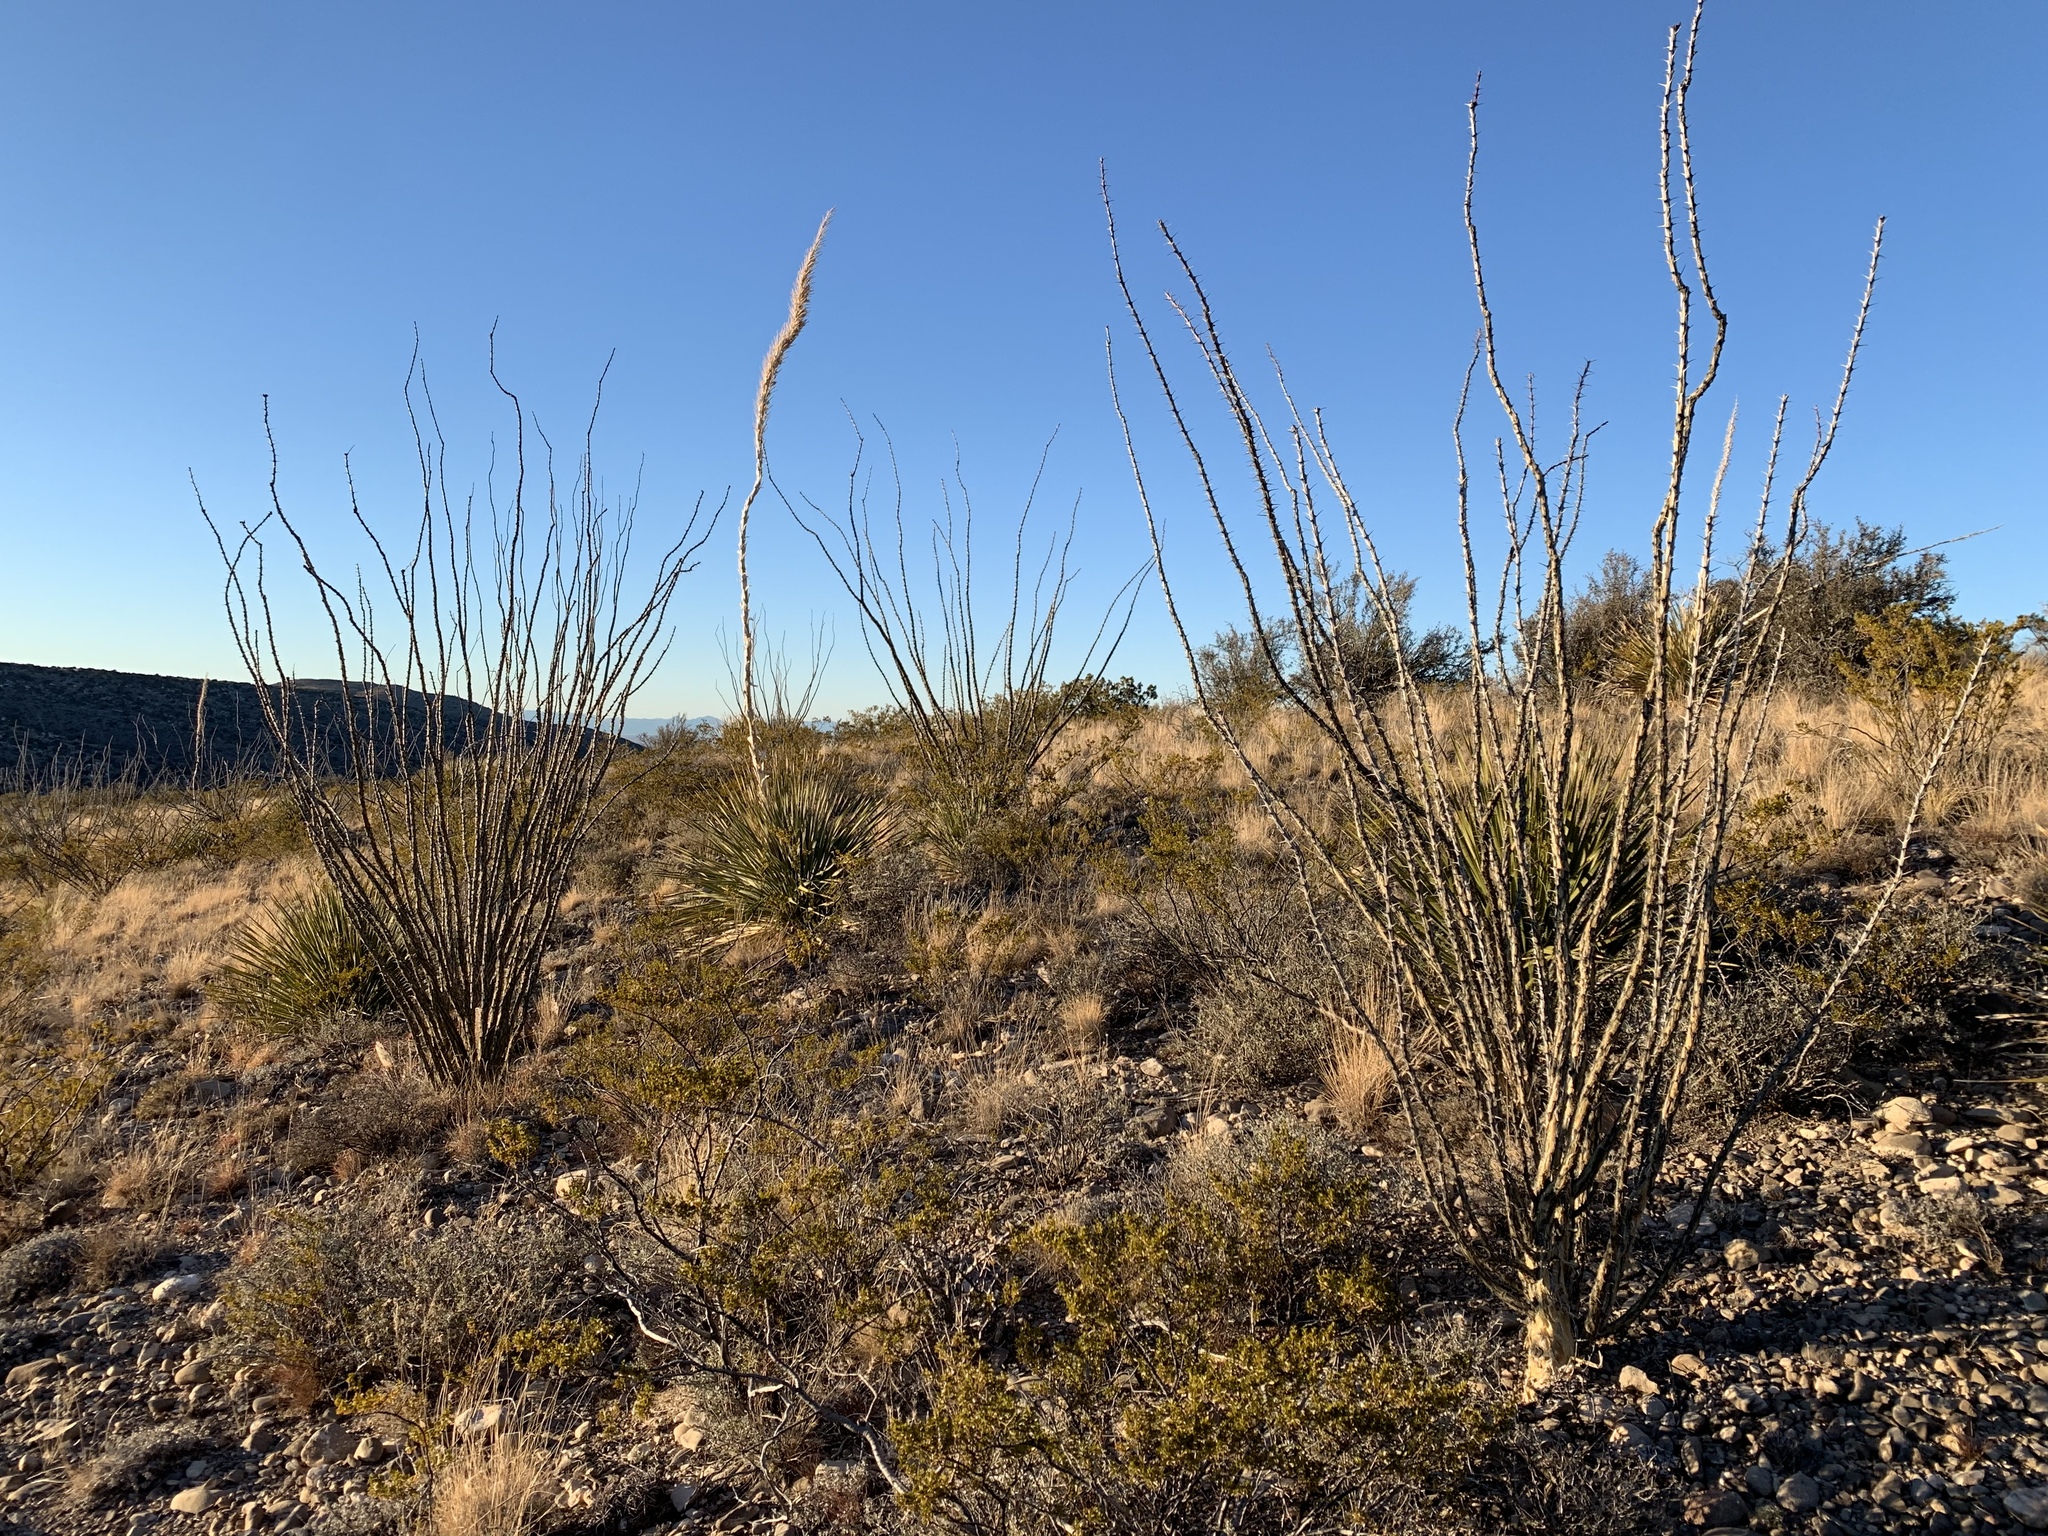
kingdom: Plantae
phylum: Tracheophyta
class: Magnoliopsida
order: Ericales
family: Fouquieriaceae
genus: Fouquieria
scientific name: Fouquieria splendens
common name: Vine-cactus
